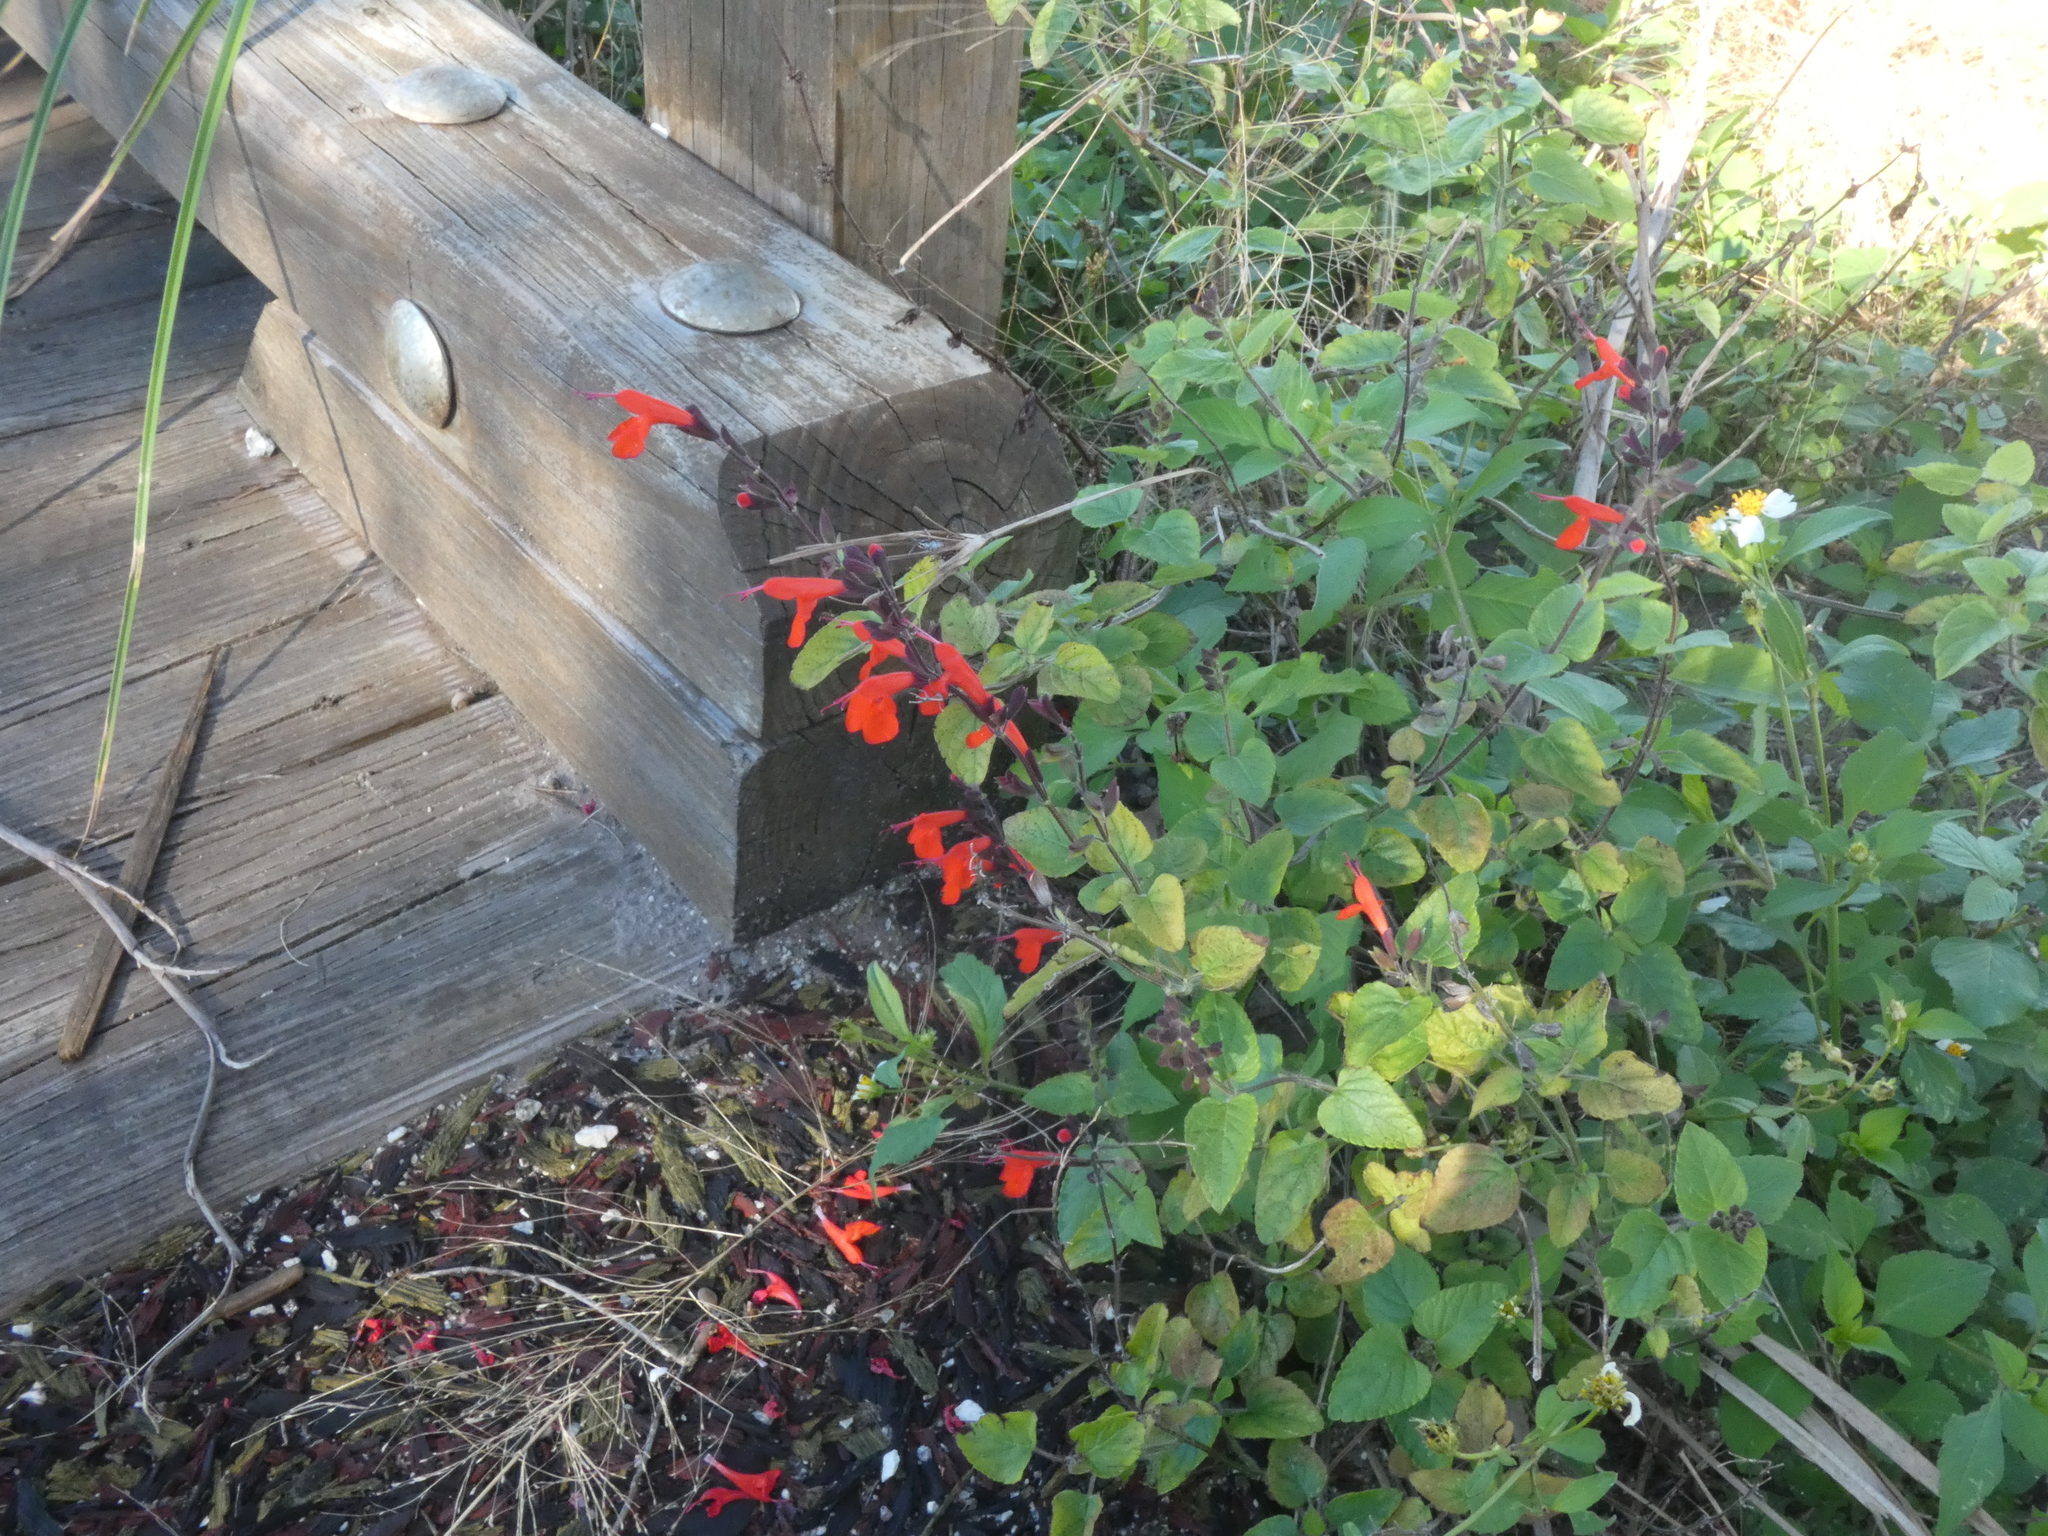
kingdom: Plantae
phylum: Tracheophyta
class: Magnoliopsida
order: Lamiales
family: Lamiaceae
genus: Salvia
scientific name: Salvia coccinea
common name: Blood sage
